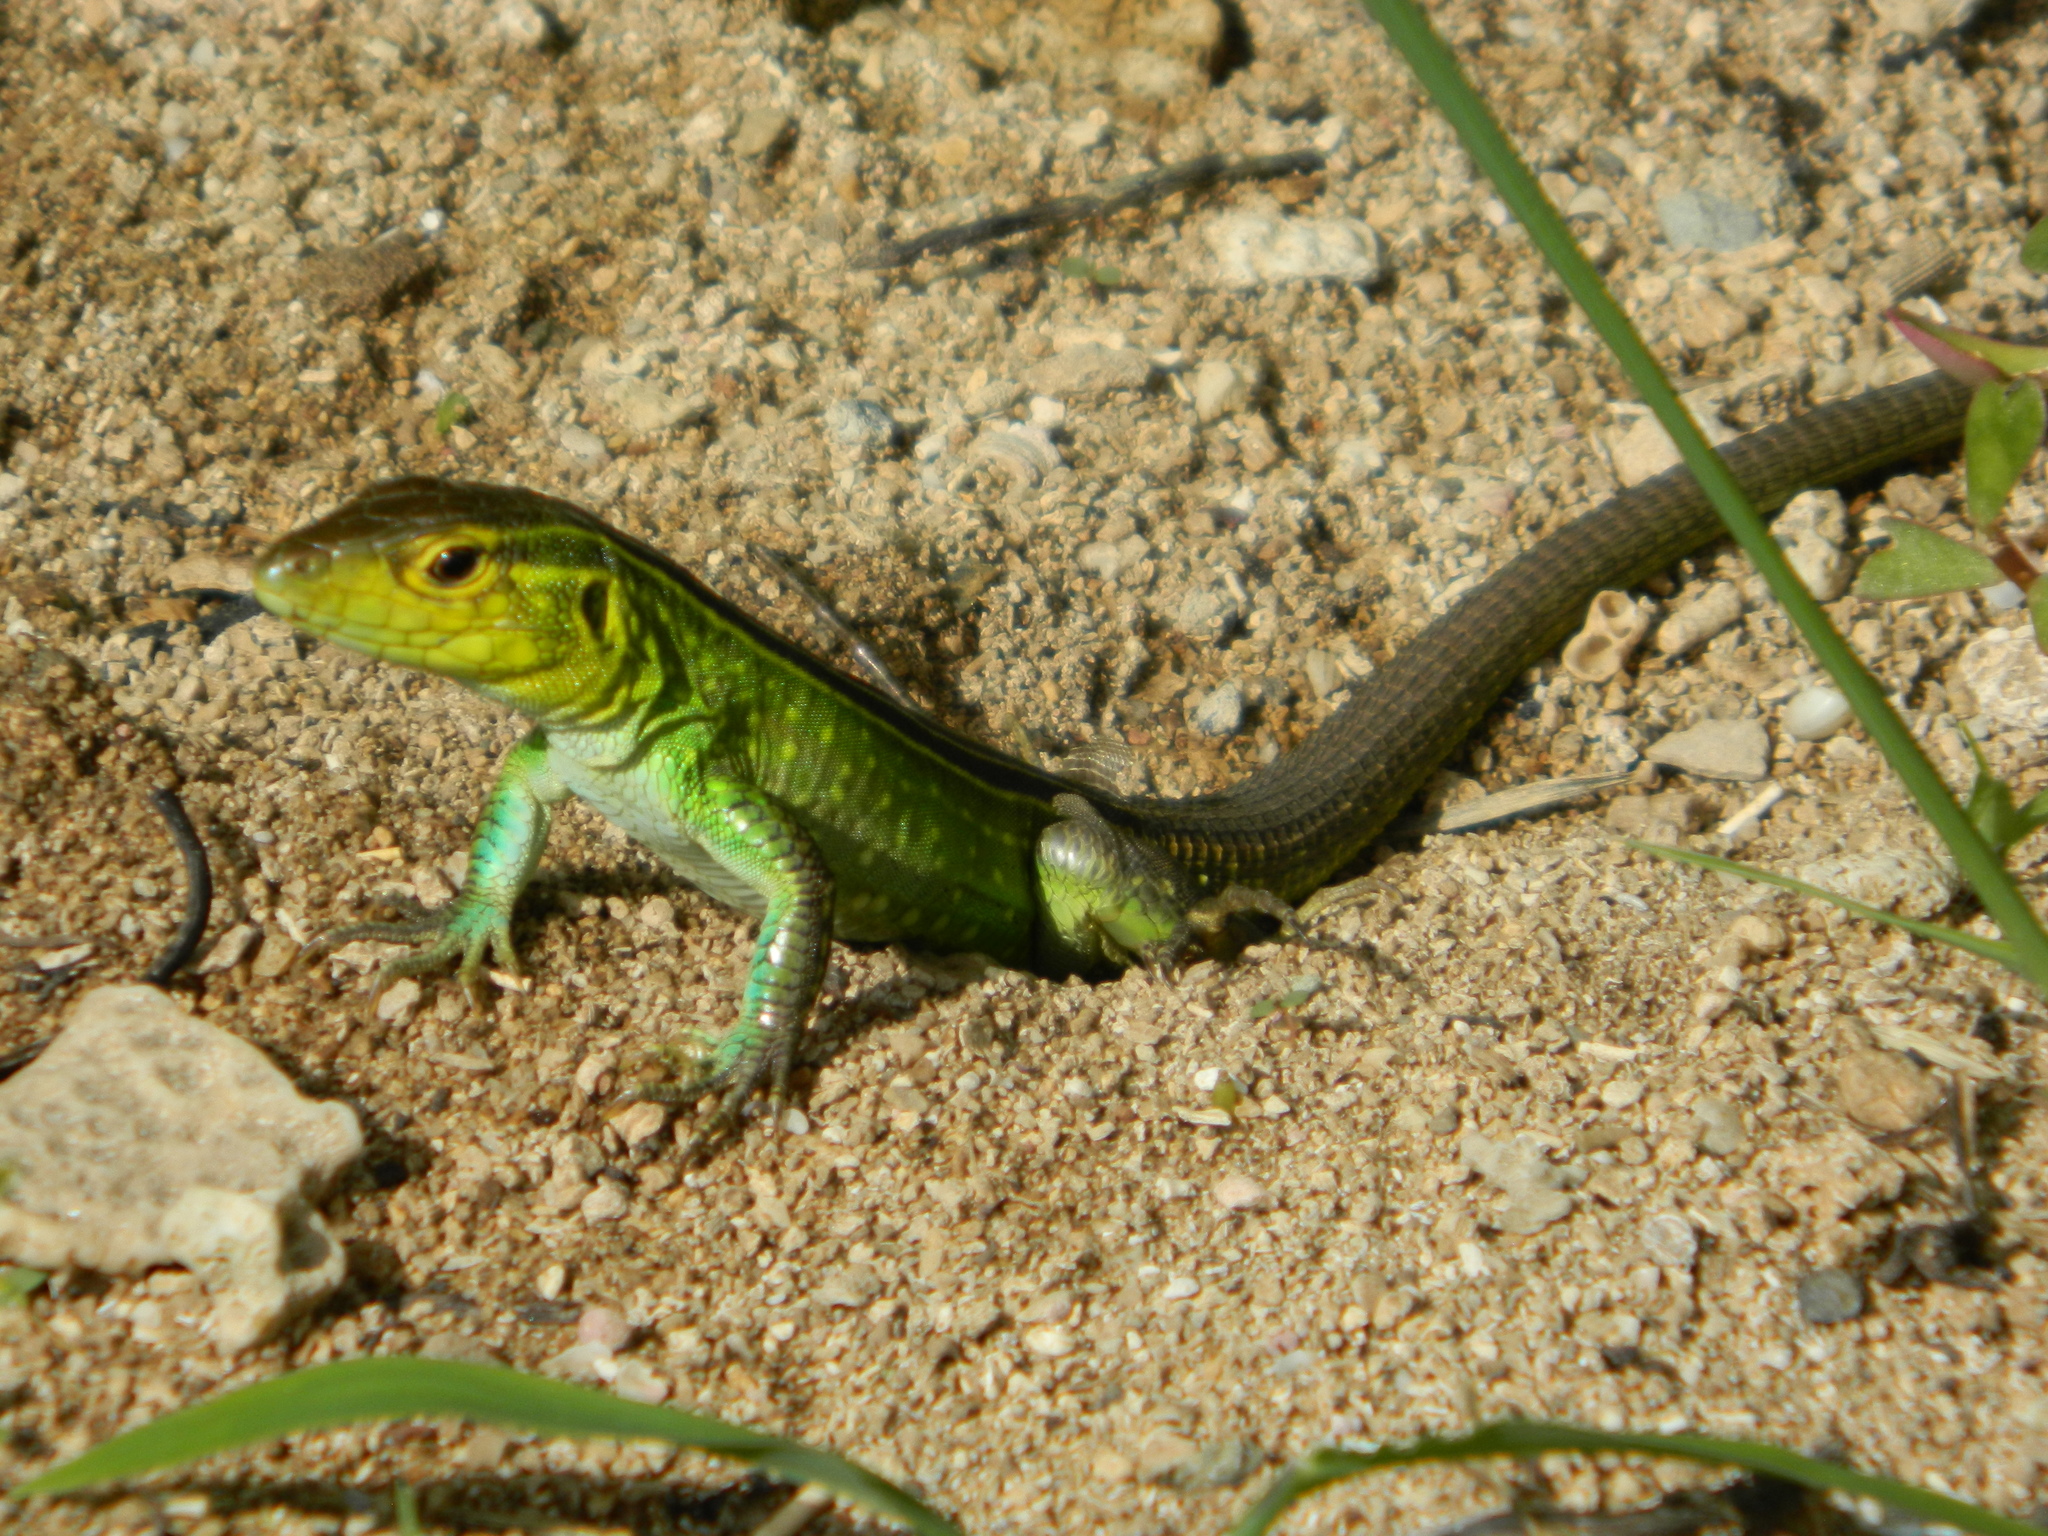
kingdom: Animalia
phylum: Chordata
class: Squamata
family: Teiidae
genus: Cnemidophorus
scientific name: Cnemidophorus ruatanus
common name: Central american whiptail
